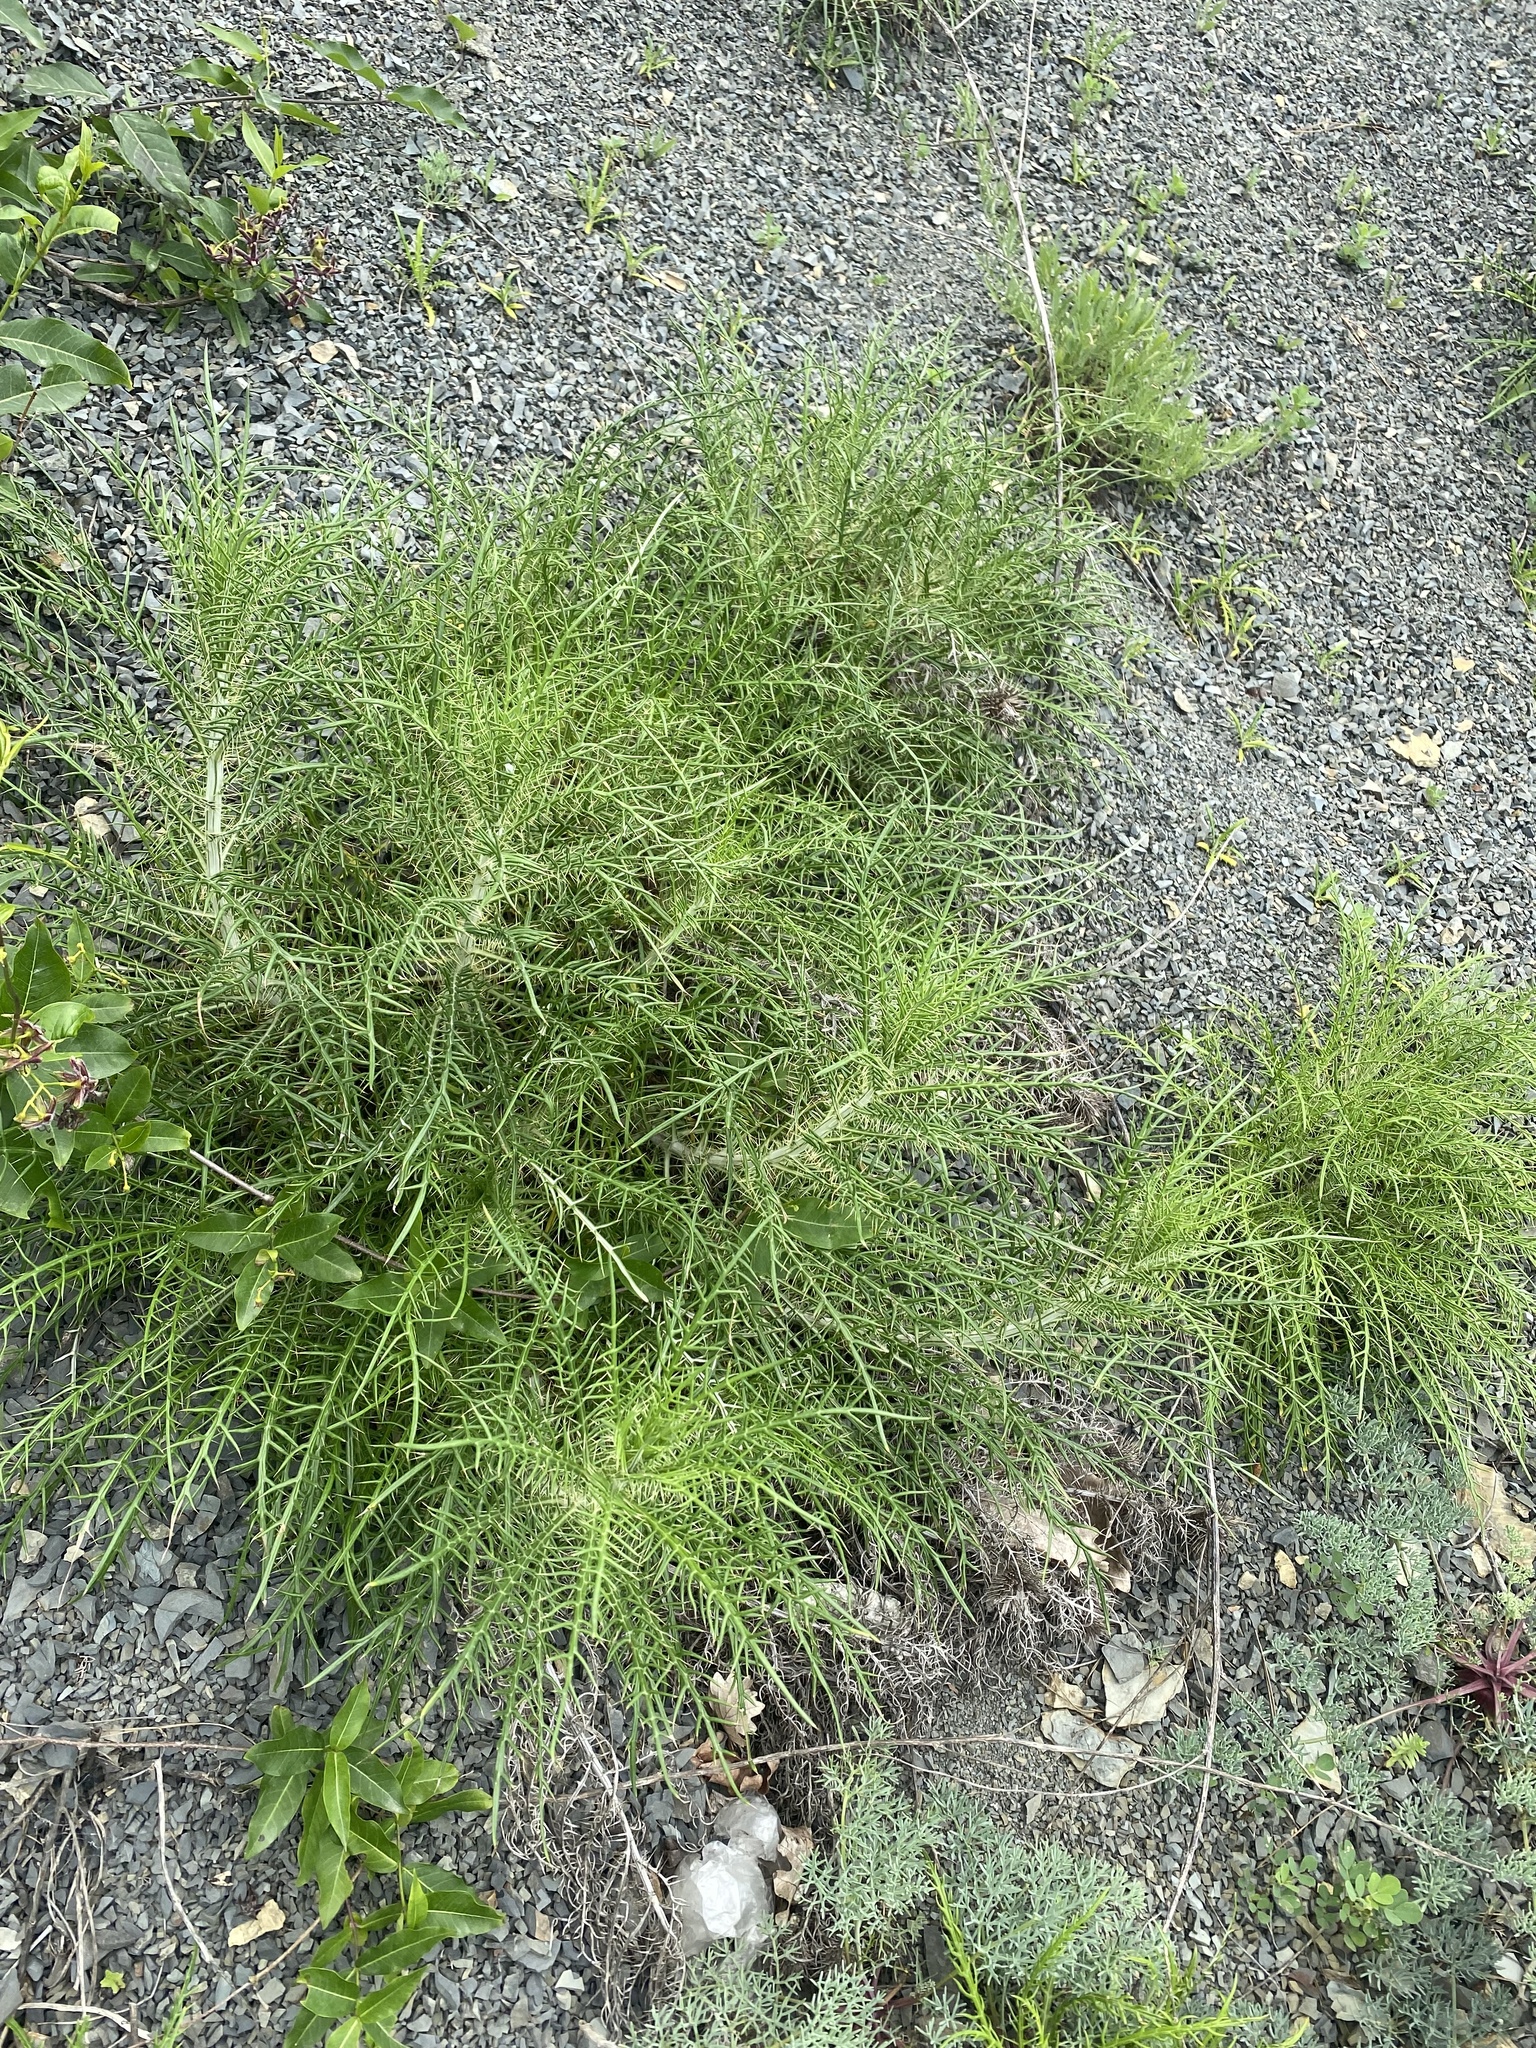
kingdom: Plantae
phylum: Tracheophyta
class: Magnoliopsida
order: Asterales
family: Asteraceae
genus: Ptilostemon
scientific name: Ptilostemon echinocephalus
